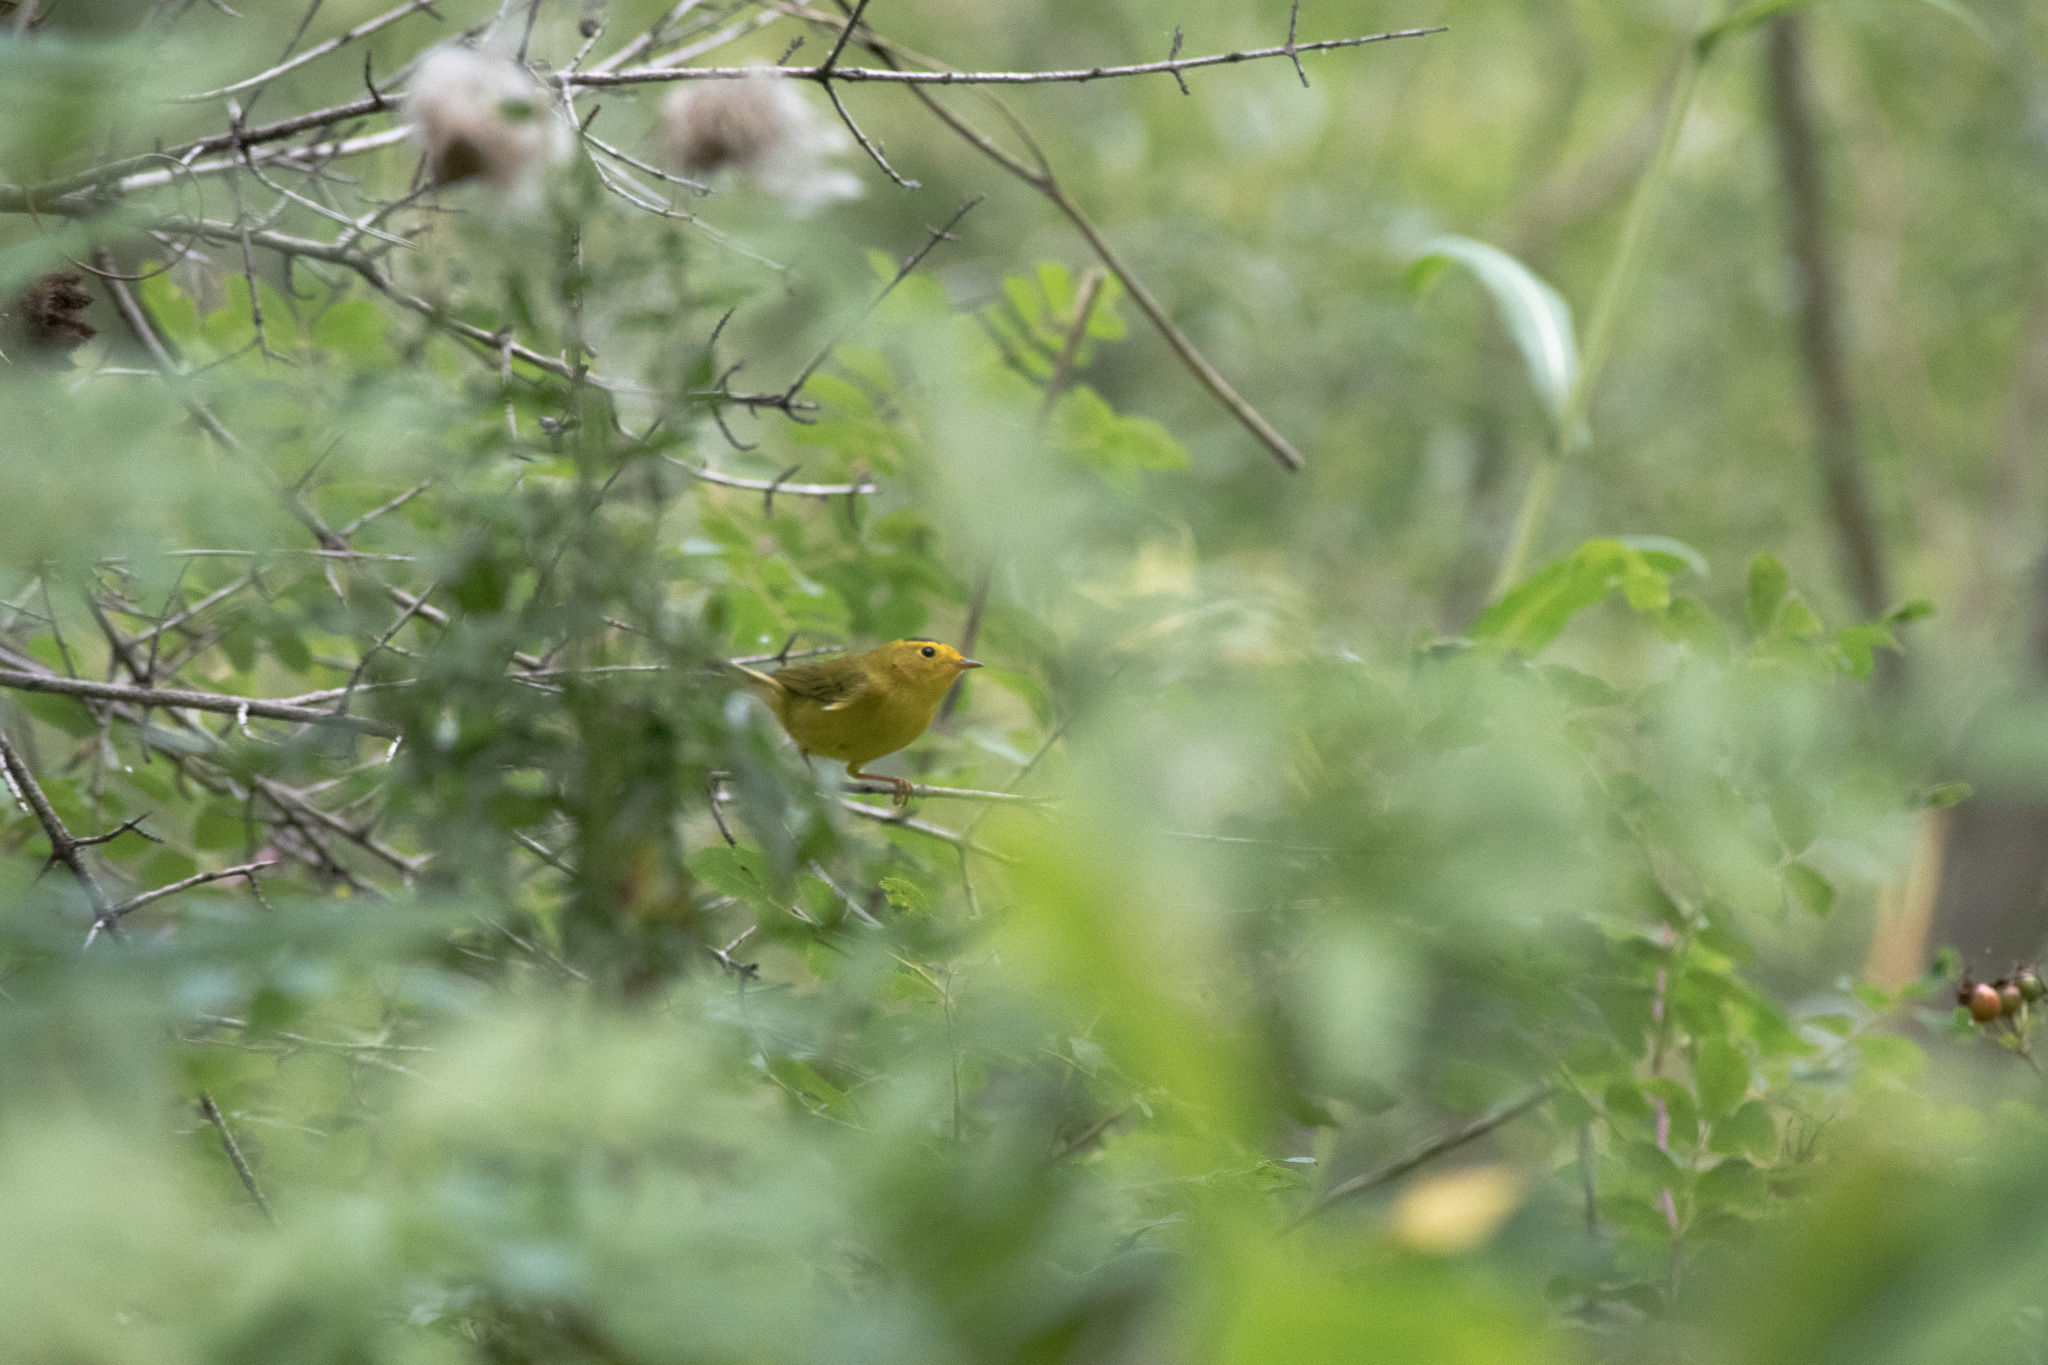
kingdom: Animalia
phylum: Chordata
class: Aves
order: Passeriformes
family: Parulidae
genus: Cardellina
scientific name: Cardellina pusilla
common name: Wilson's warbler
